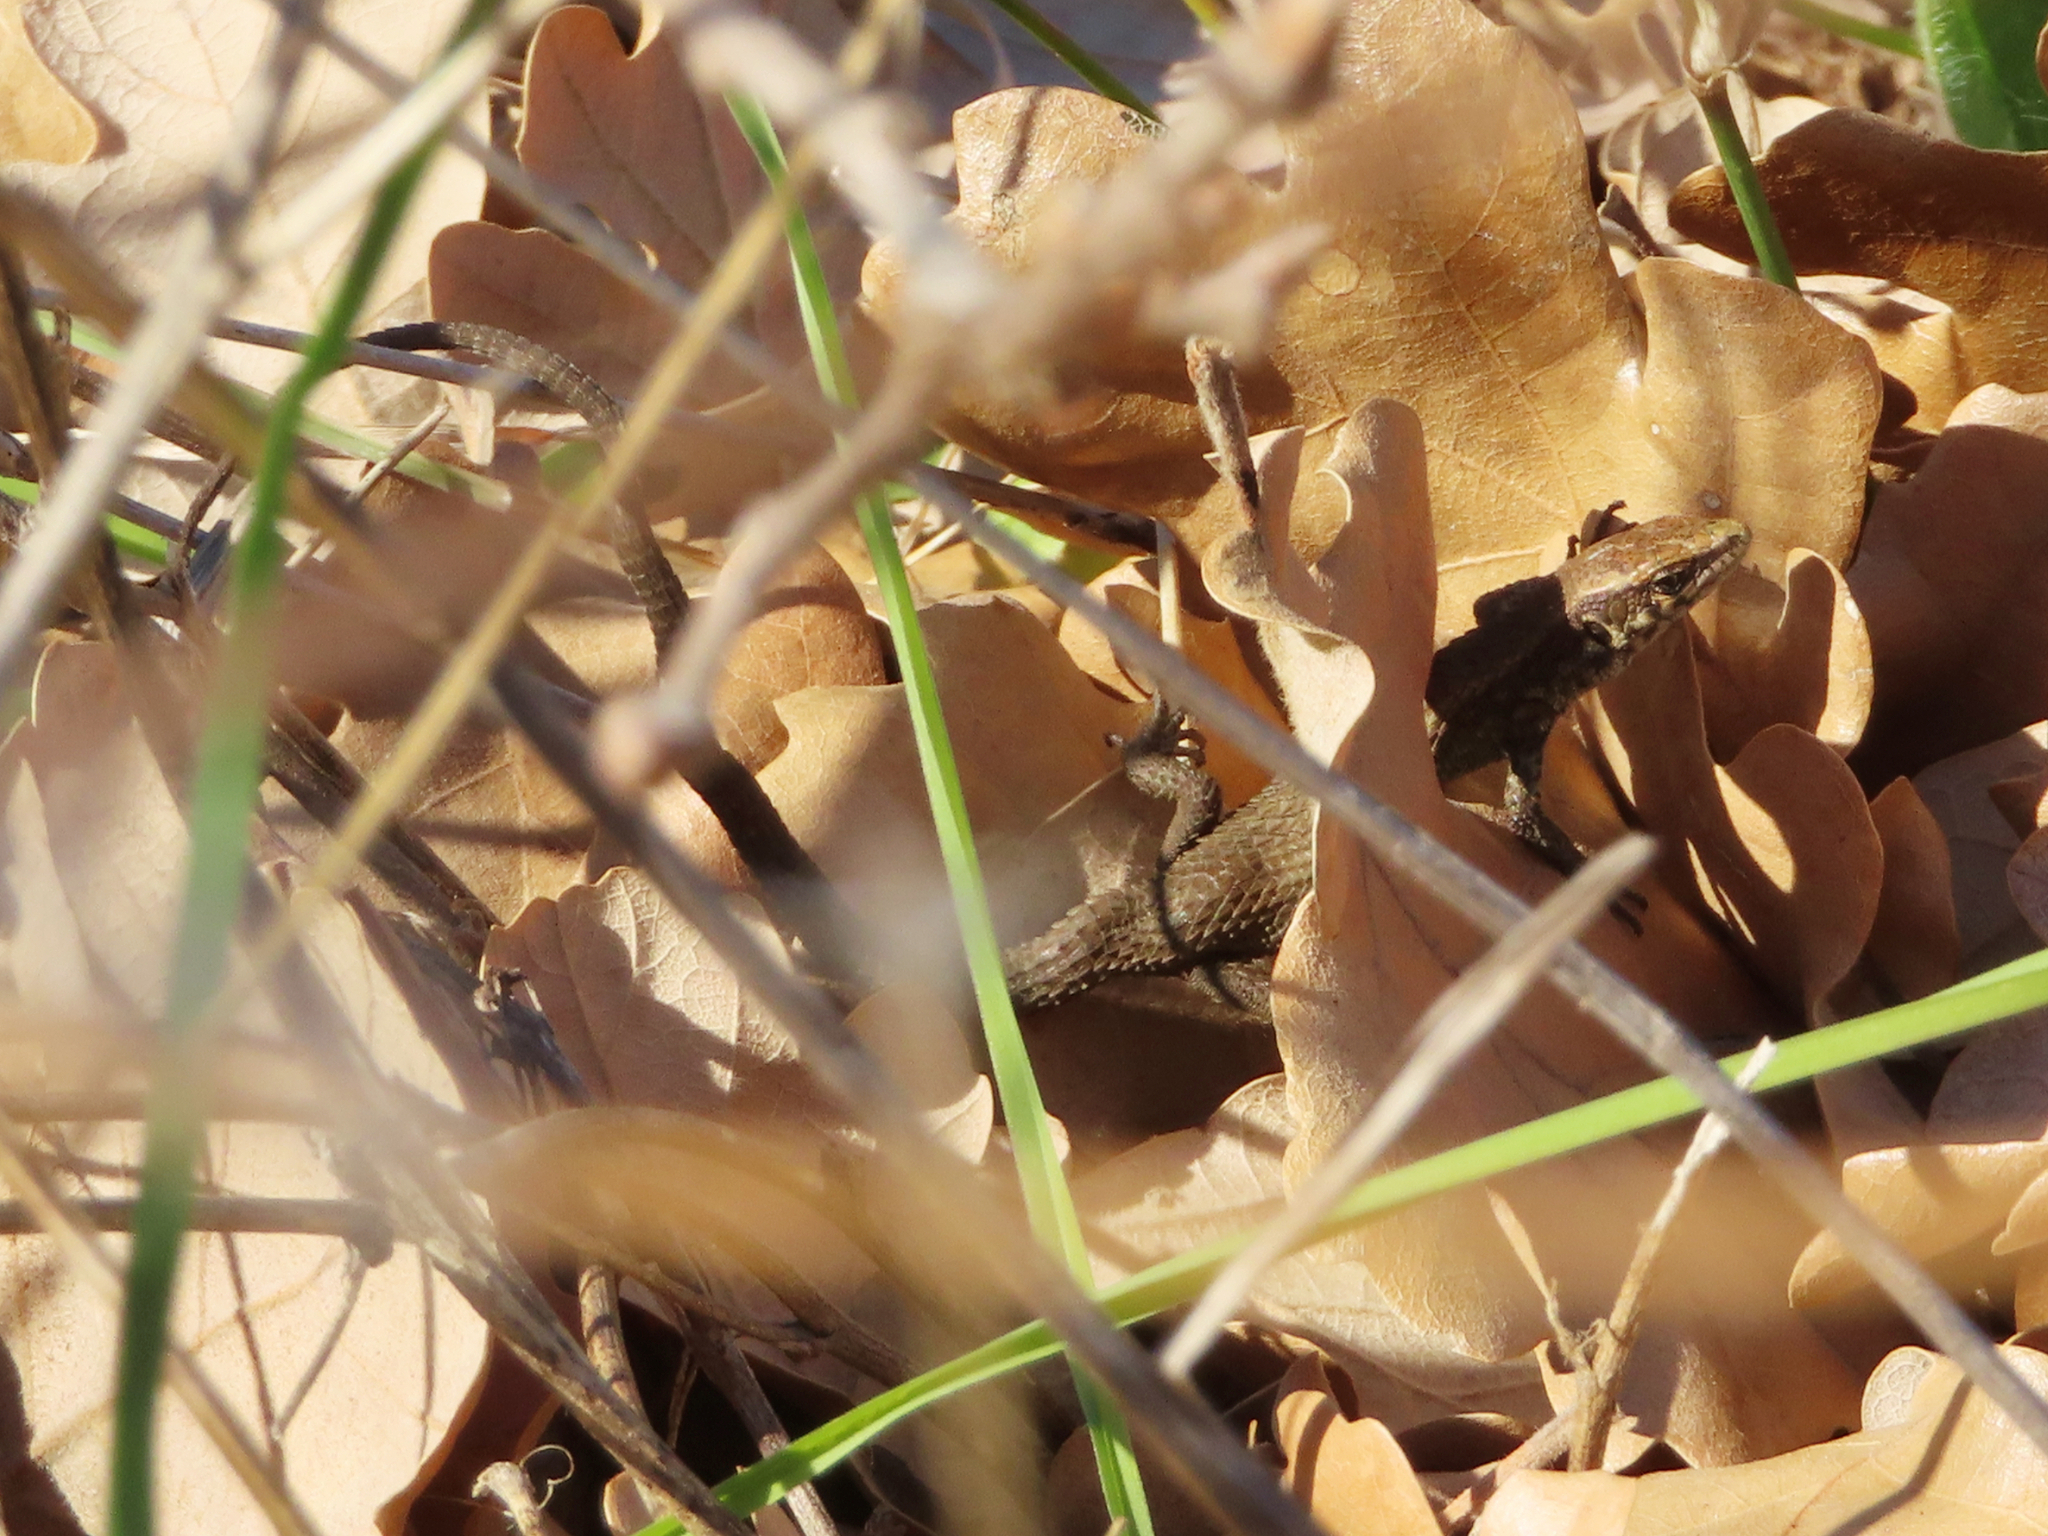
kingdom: Animalia
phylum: Chordata
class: Squamata
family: Lacertidae
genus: Algyroides
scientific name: Algyroides moreoticus
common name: Greek algyroides
